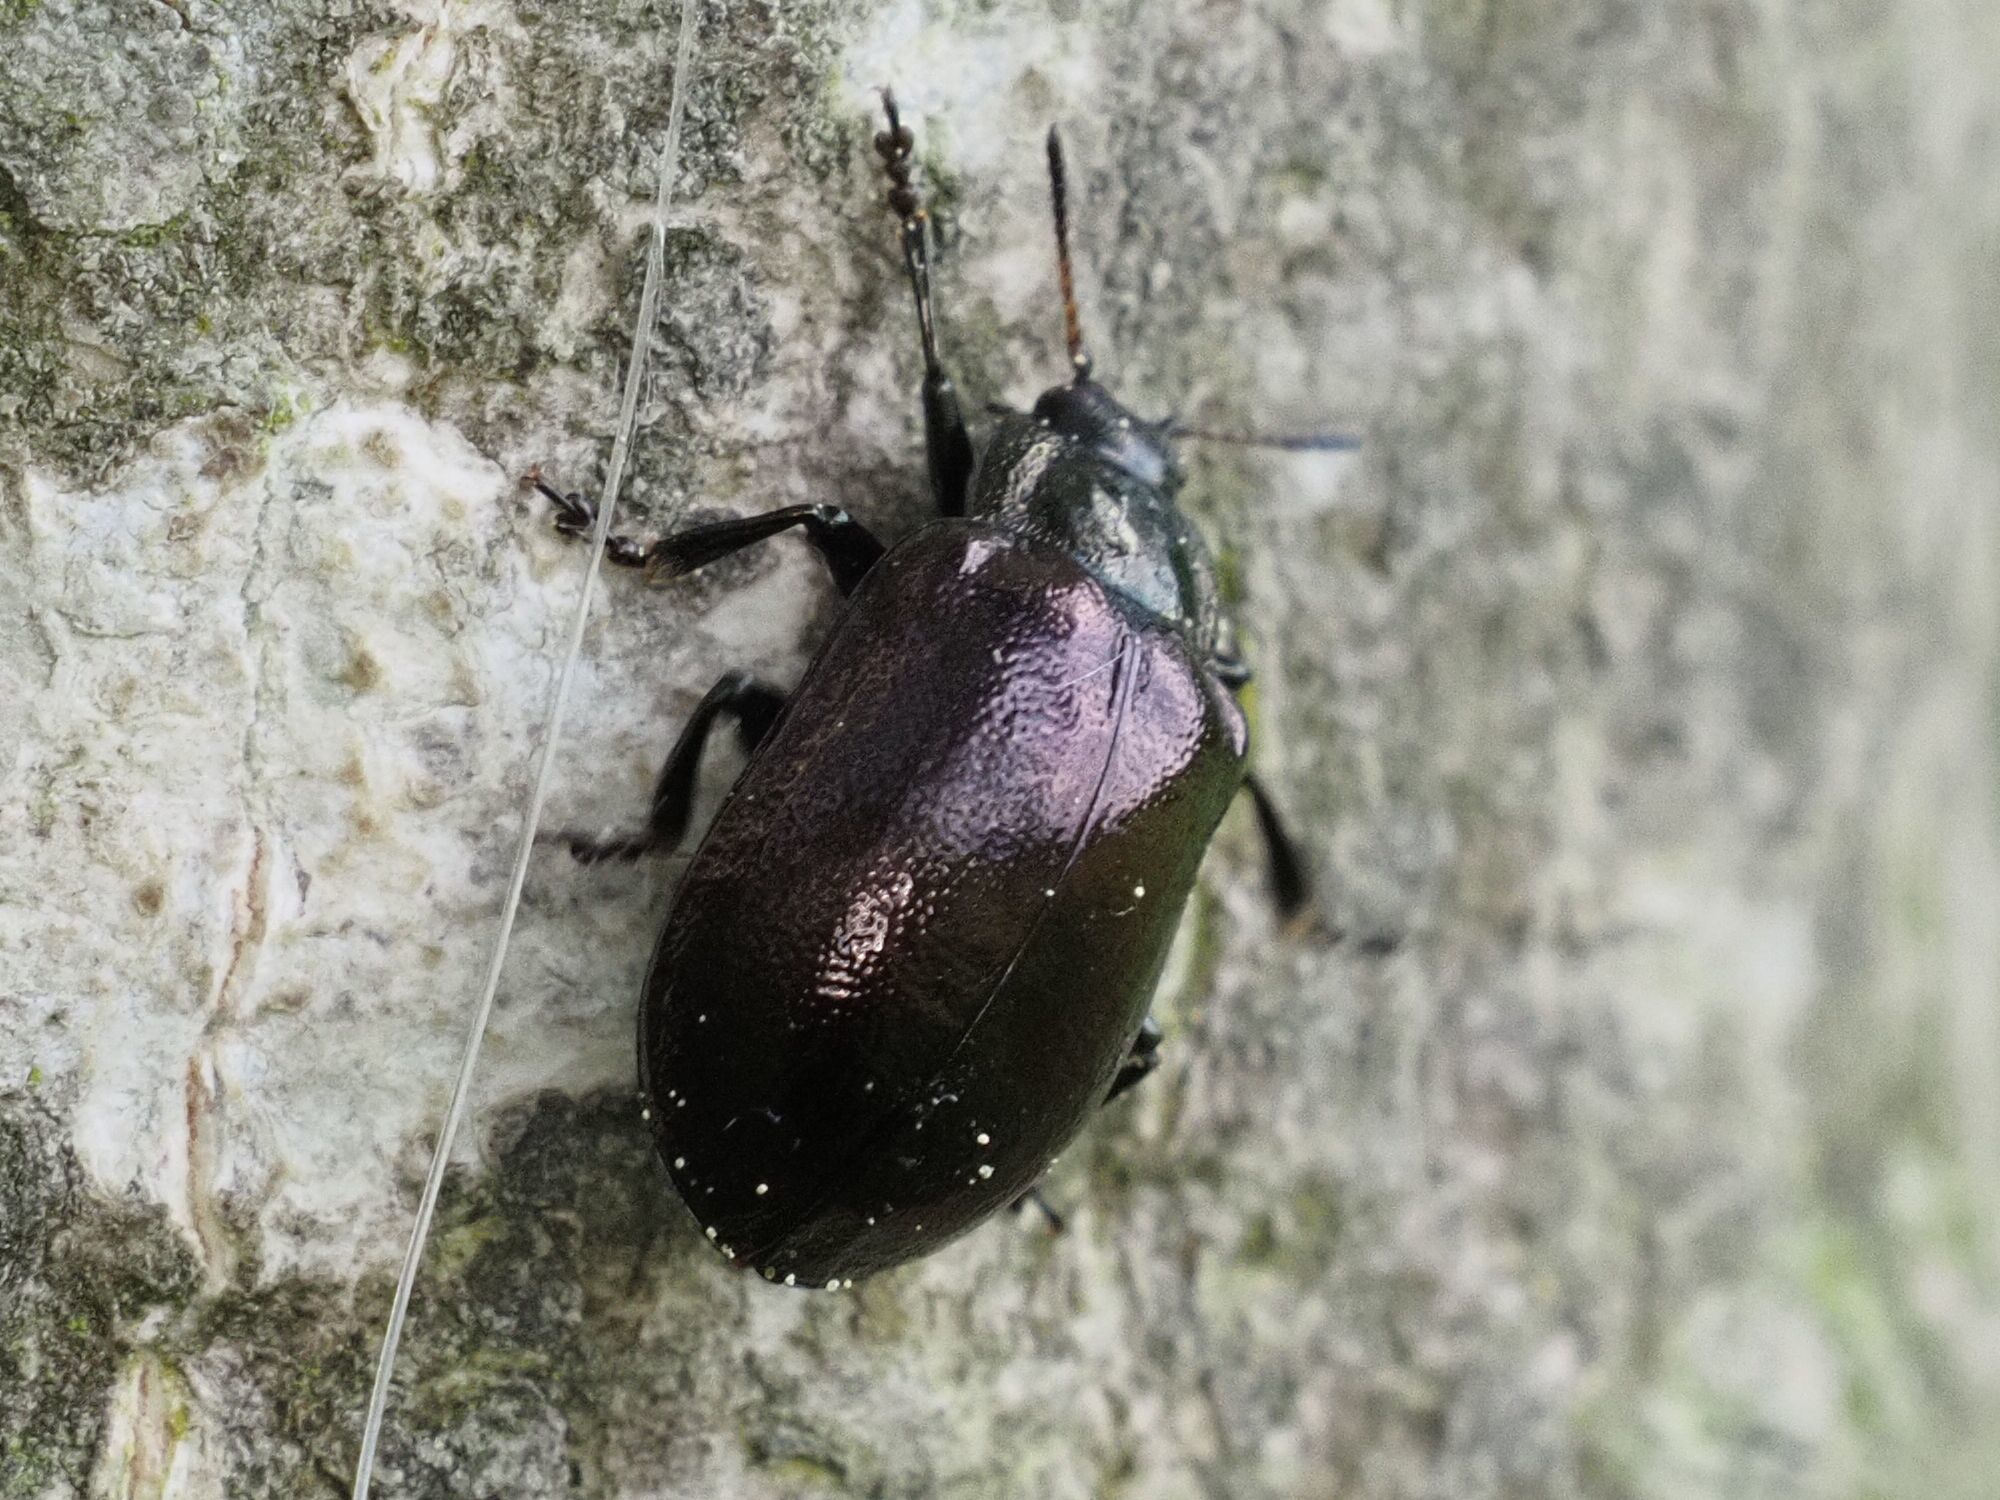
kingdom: Animalia
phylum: Arthropoda
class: Insecta
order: Coleoptera
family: Chrysomelidae
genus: Chrysomela
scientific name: Chrysomela cuprea
